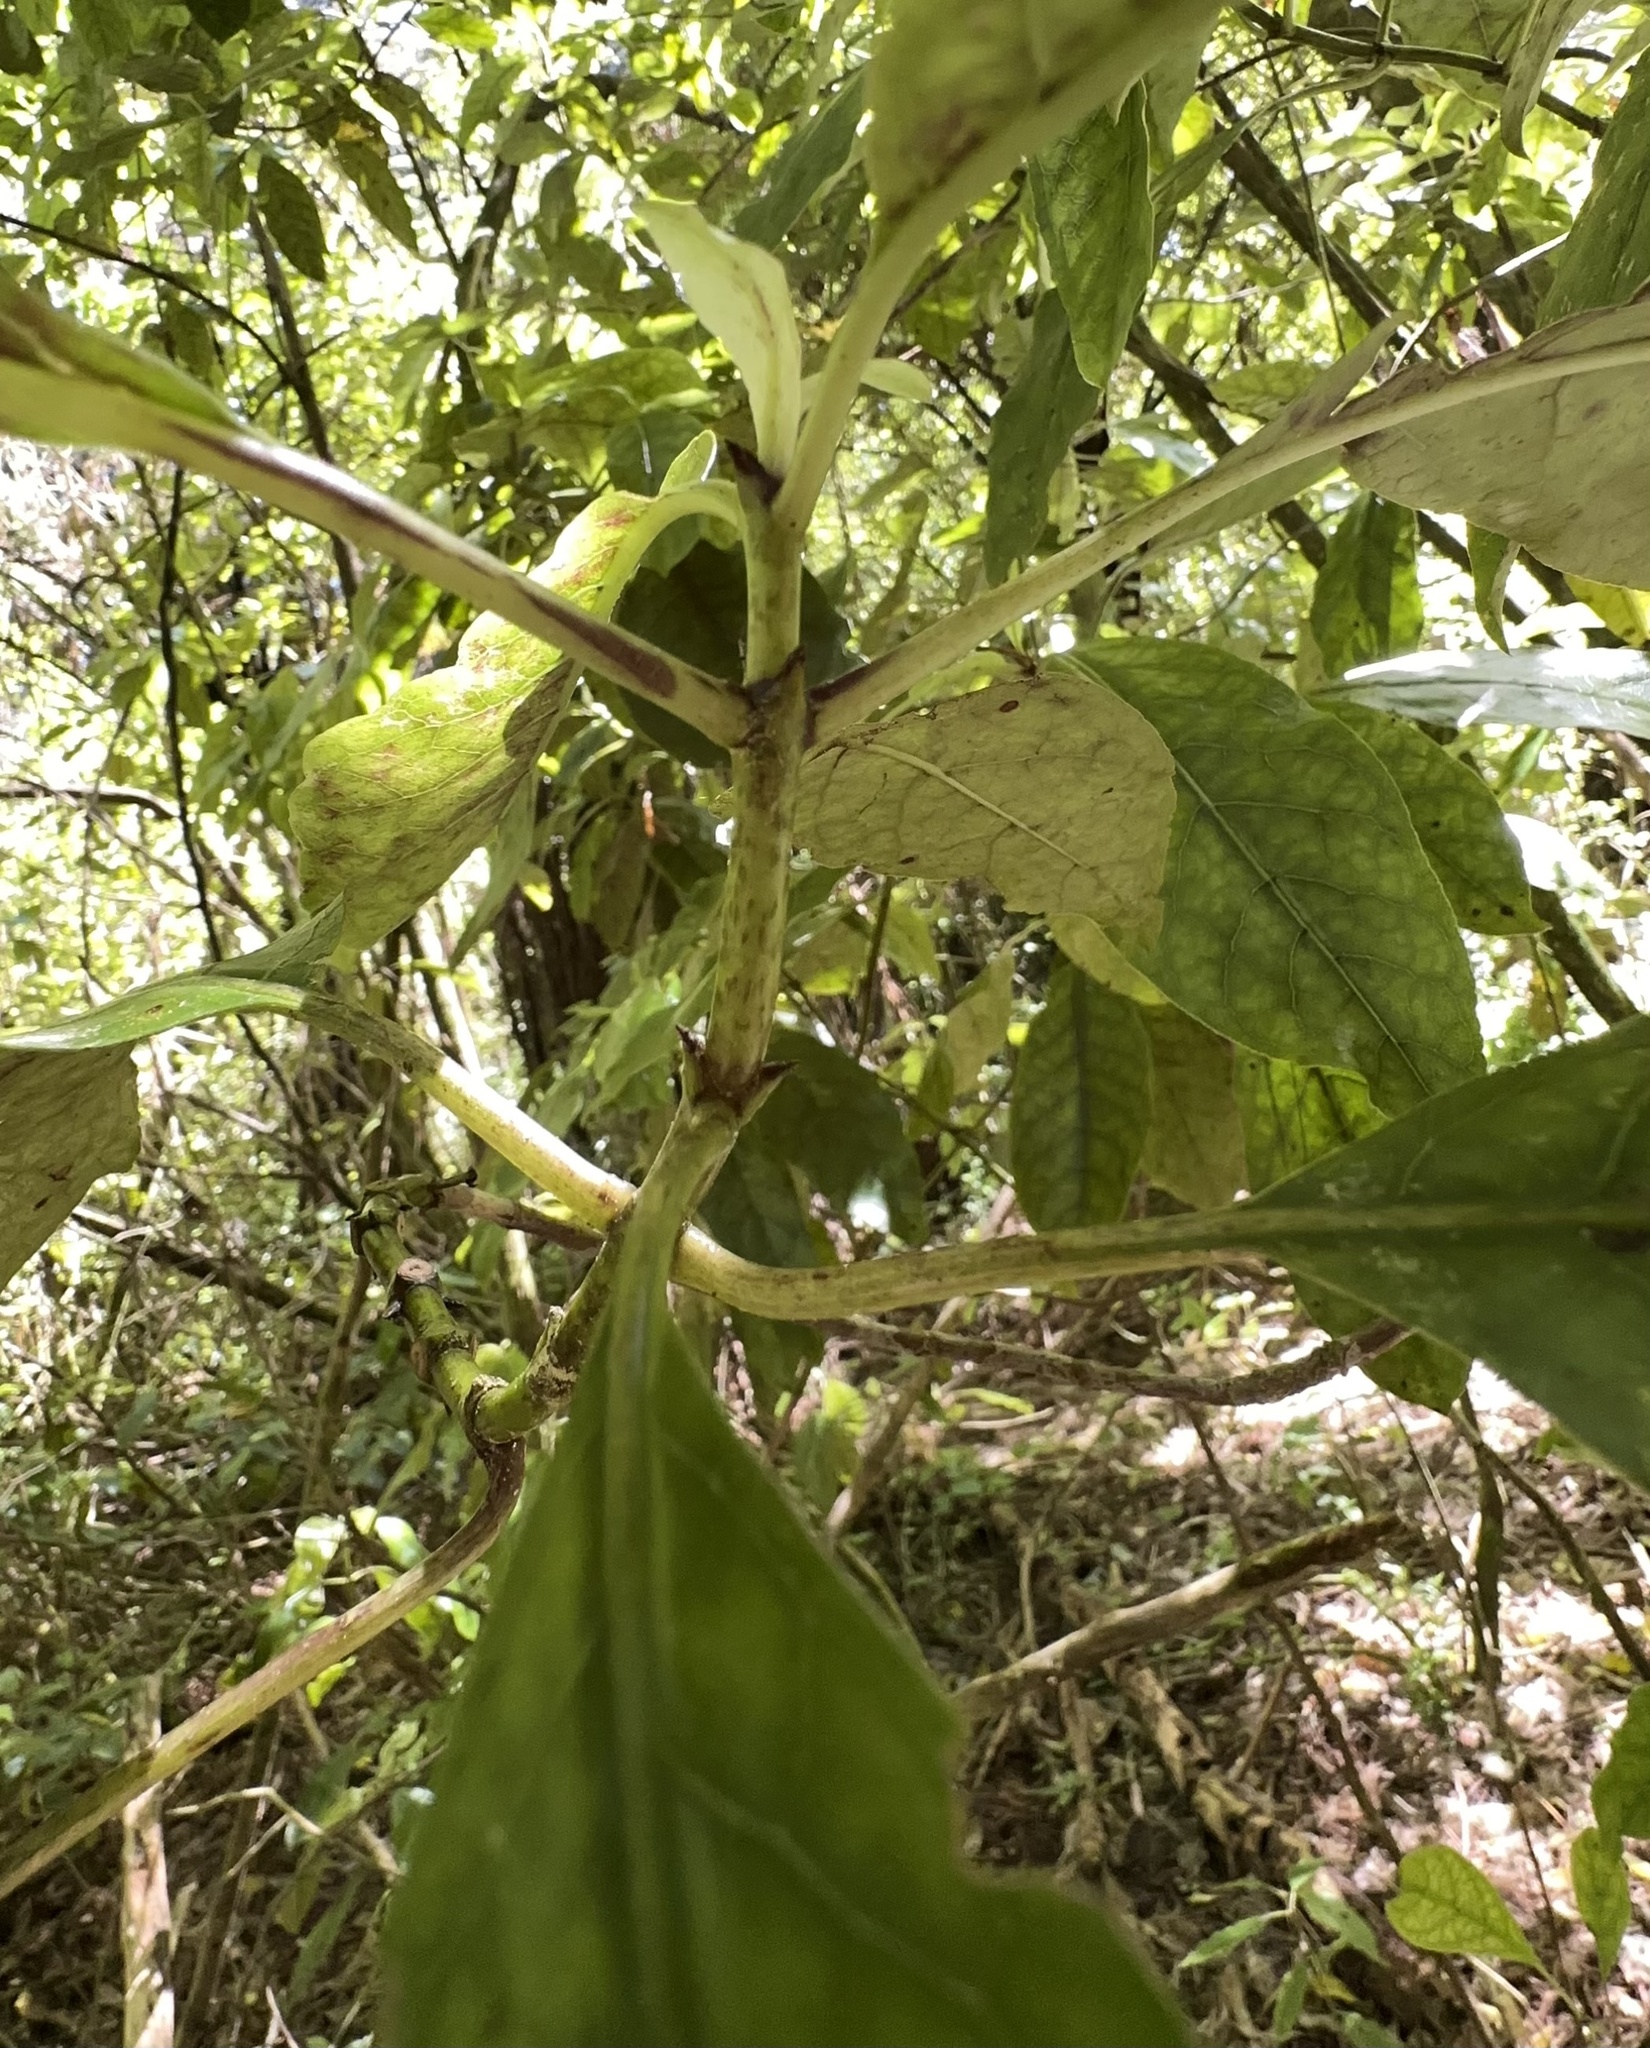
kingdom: Plantae
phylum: Tracheophyta
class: Magnoliopsida
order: Gentianales
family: Rubiaceae
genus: Coprosma
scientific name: Coprosma autumnalis
